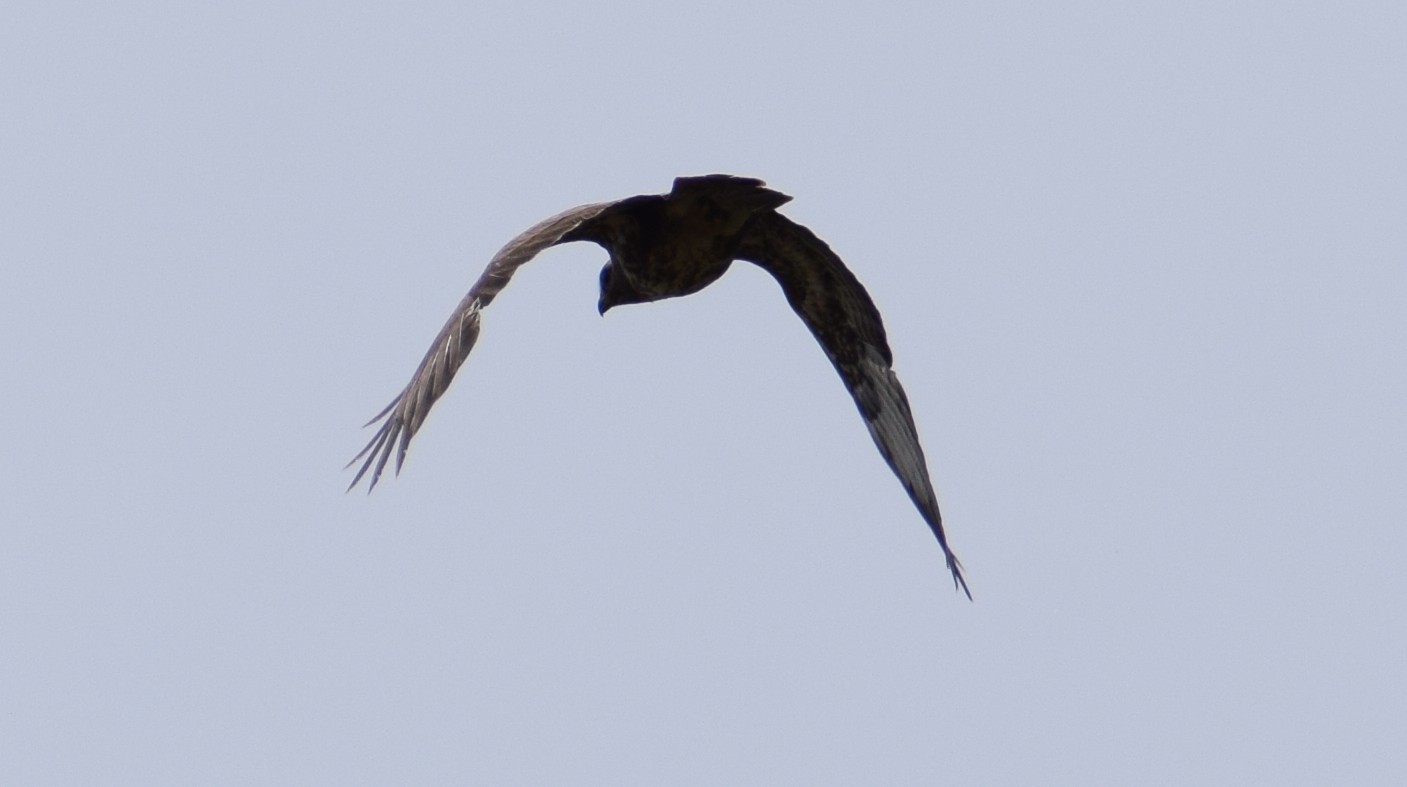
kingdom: Animalia
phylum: Chordata
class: Aves
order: Accipitriformes
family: Accipitridae
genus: Buteo
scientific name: Buteo buteo
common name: Common buzzard
